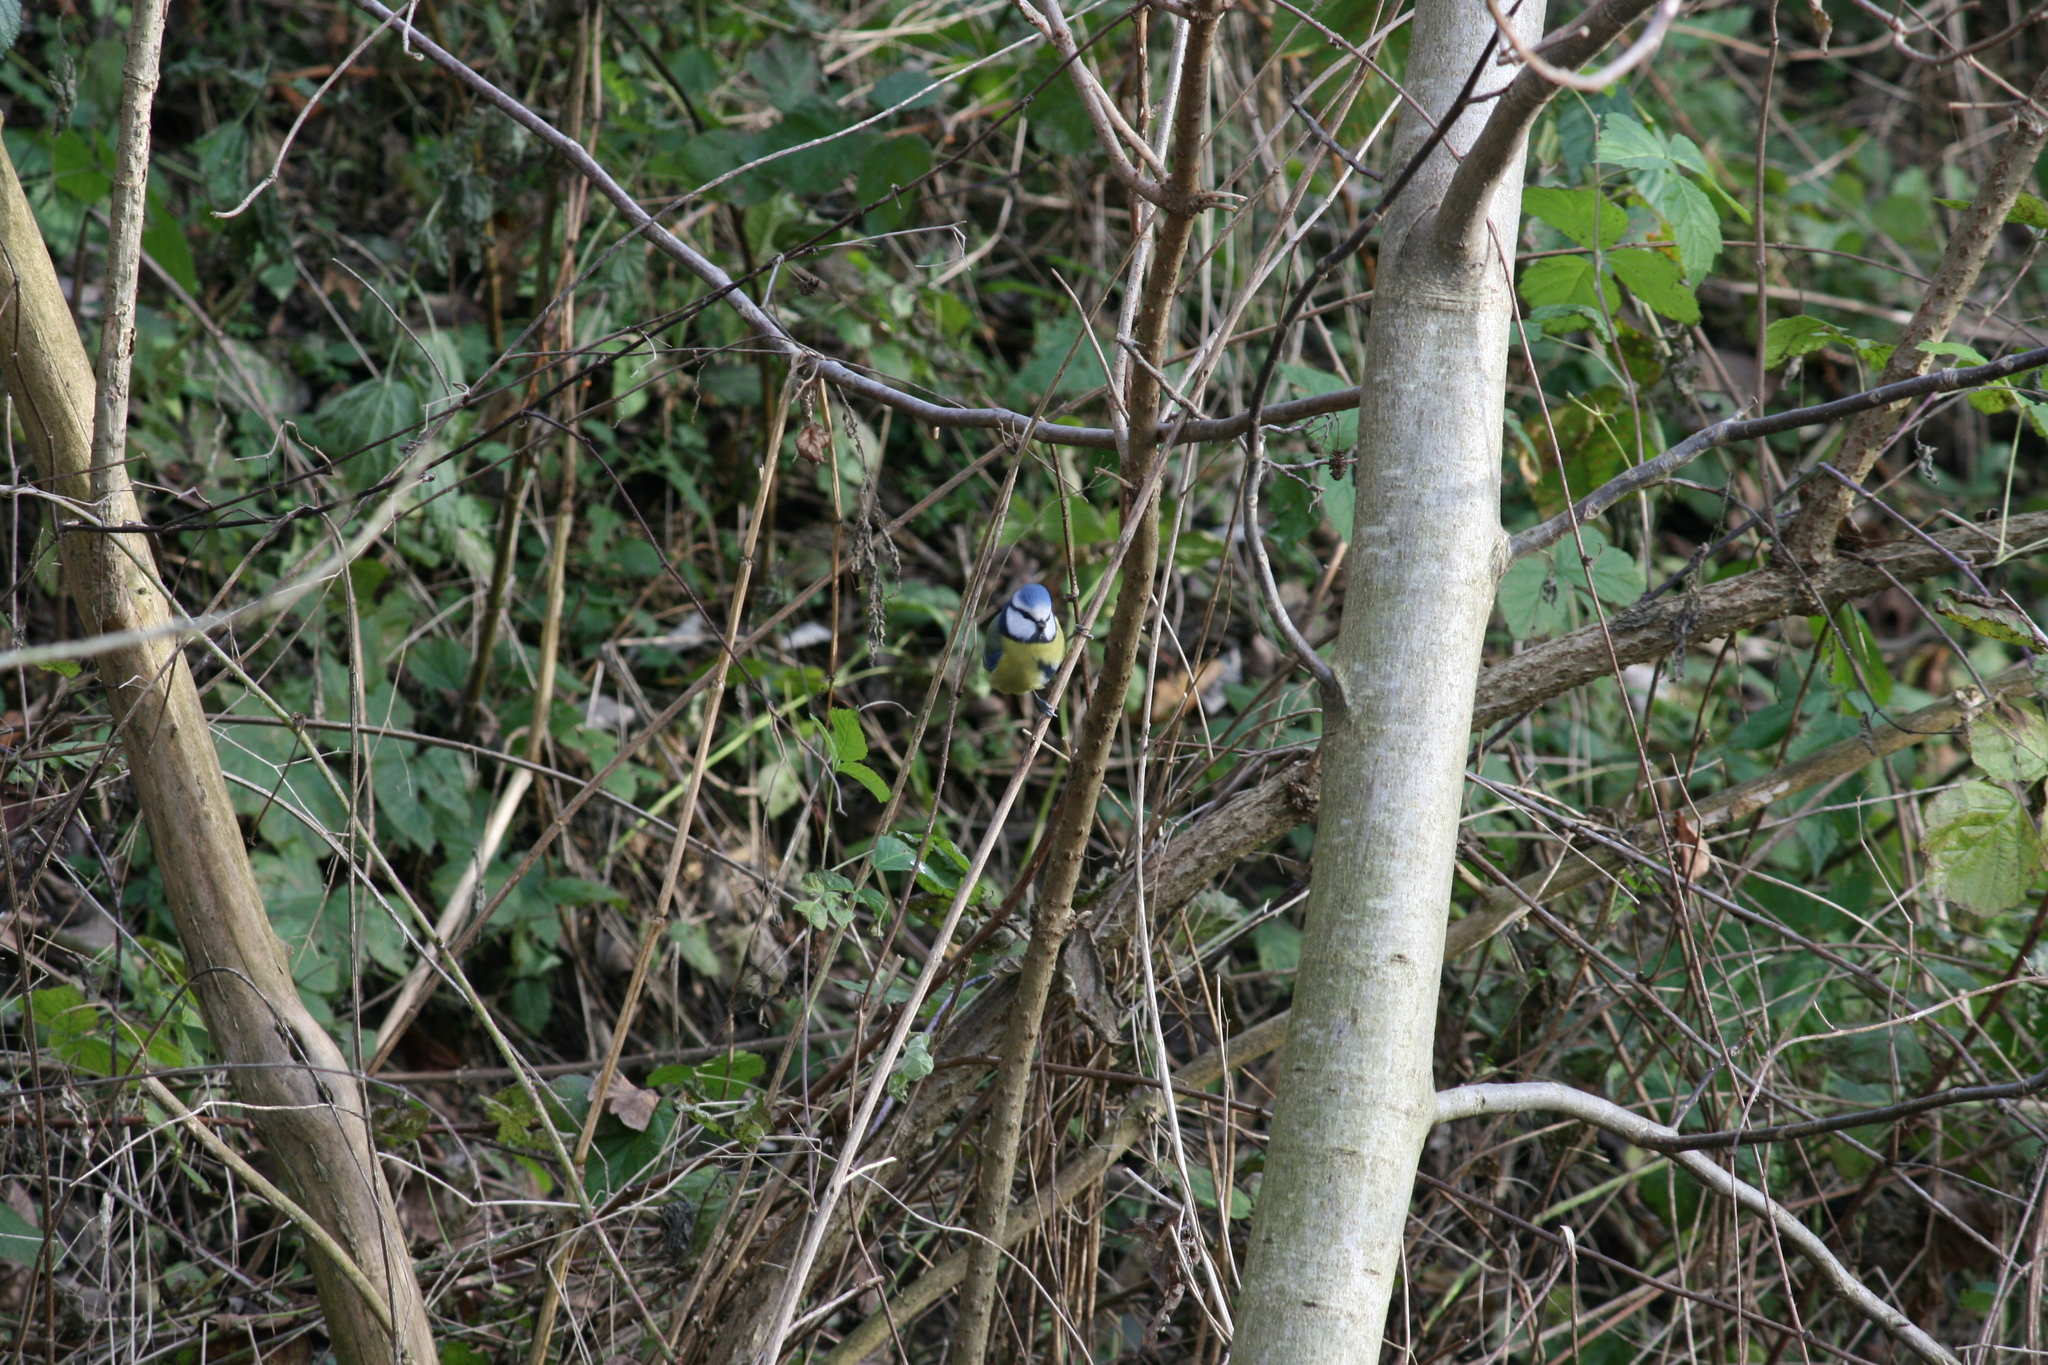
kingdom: Animalia
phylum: Chordata
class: Aves
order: Passeriformes
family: Paridae
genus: Cyanistes
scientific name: Cyanistes caeruleus
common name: Eurasian blue tit
